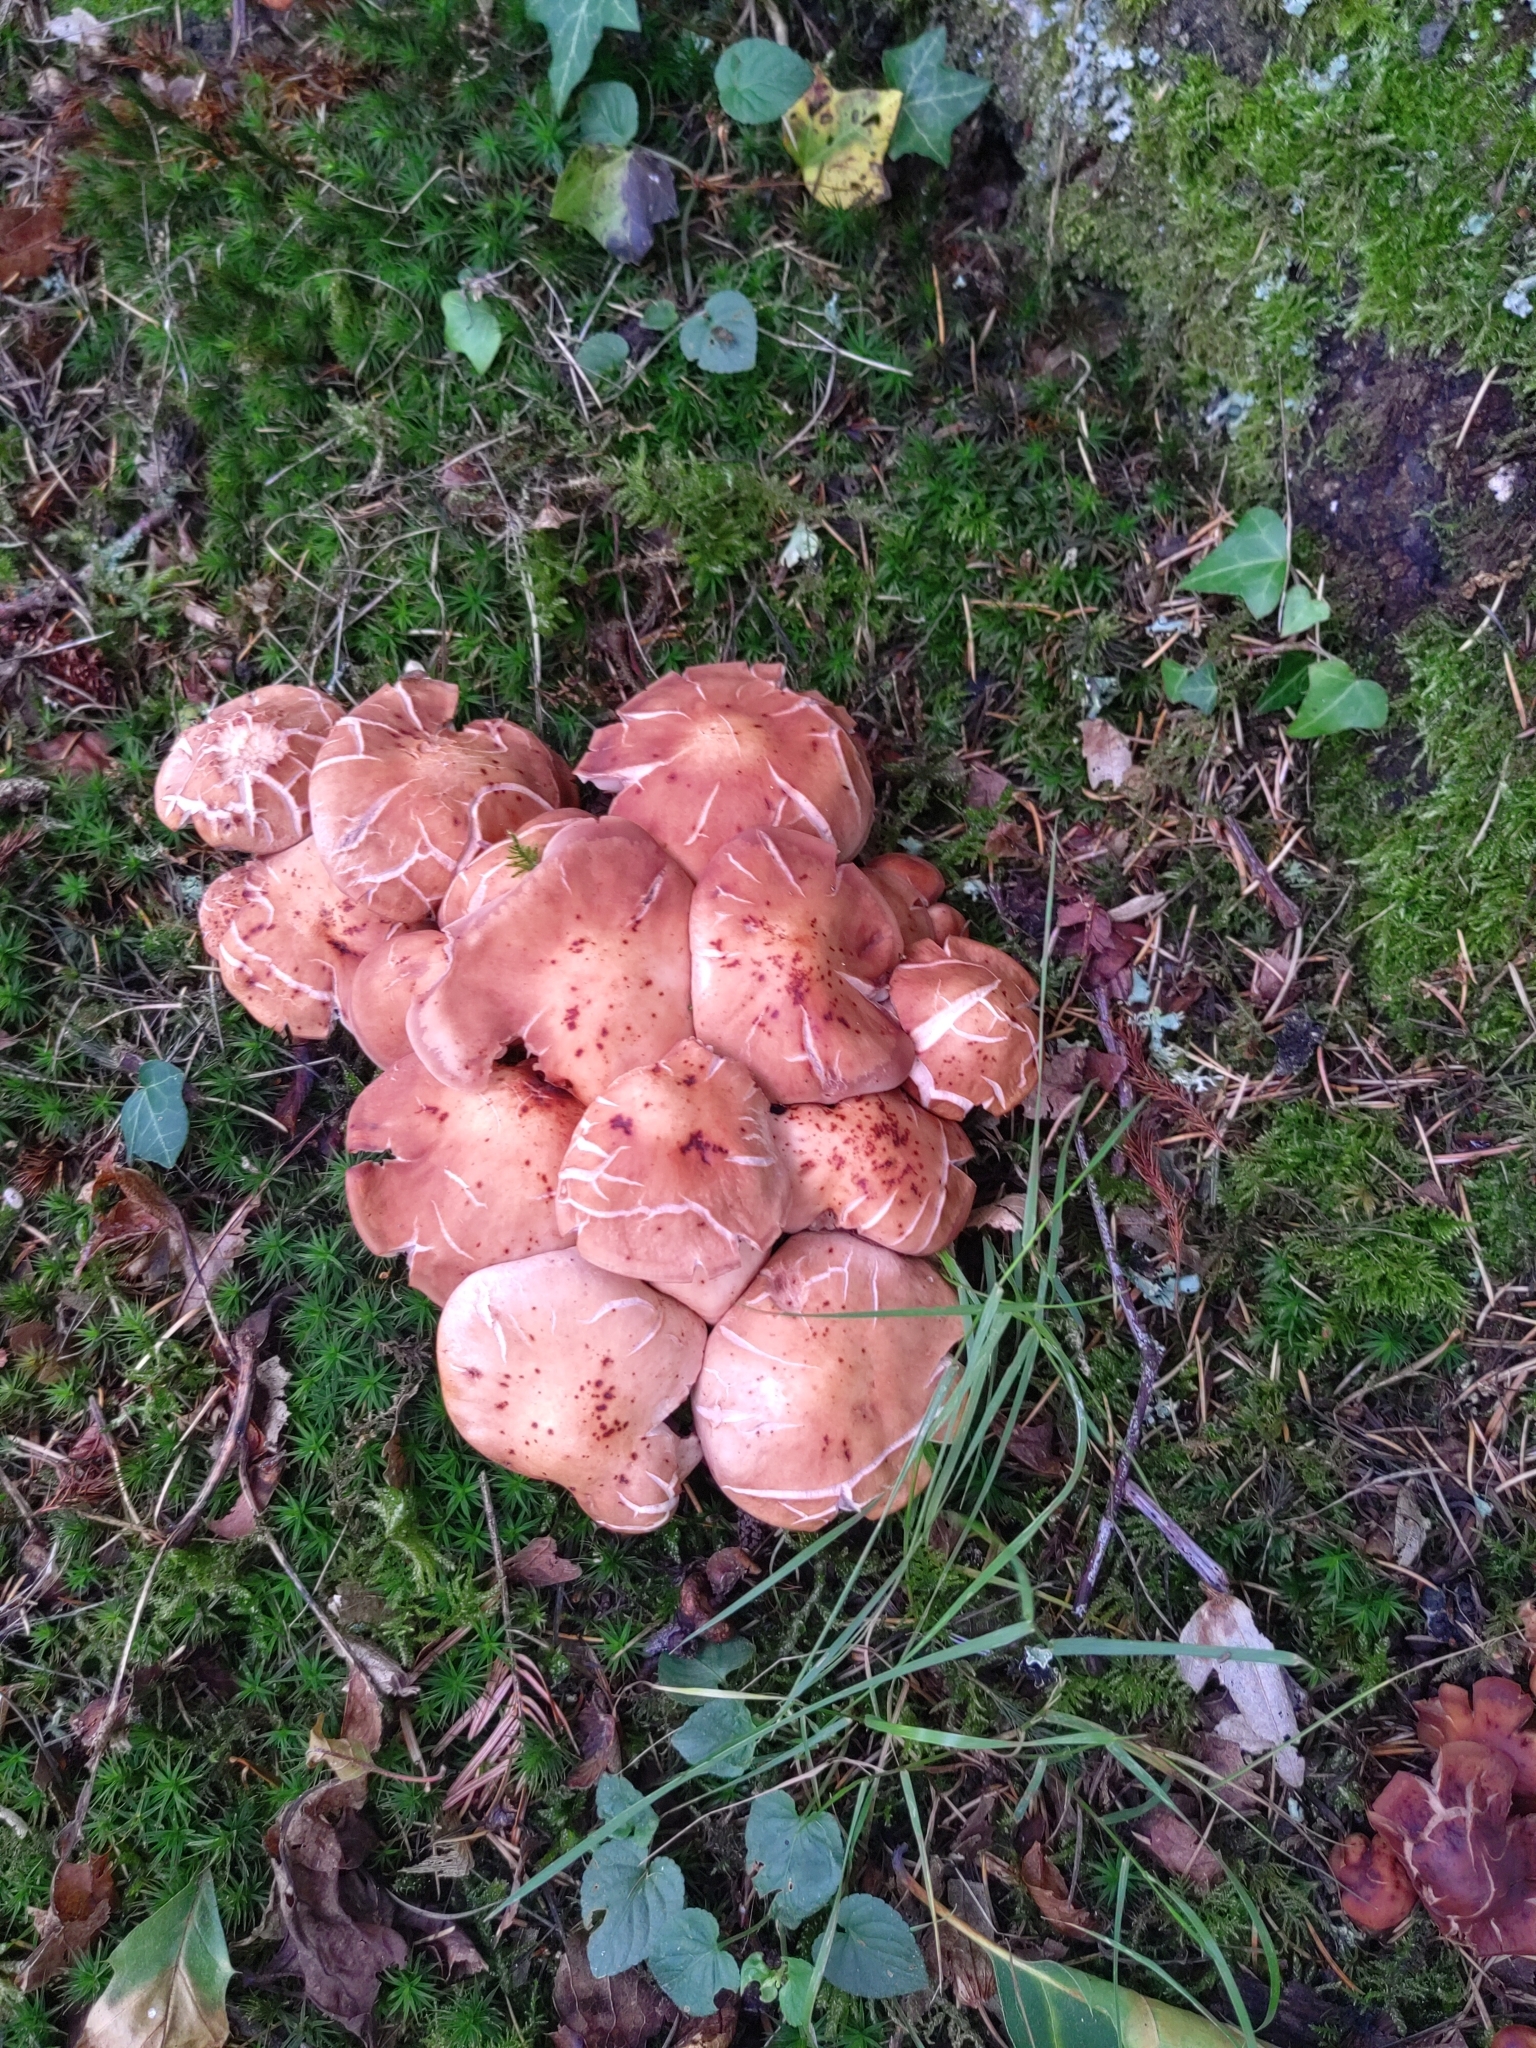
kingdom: Fungi
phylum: Basidiomycota
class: Agaricomycetes
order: Agaricales
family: Omphalotaceae
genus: Gymnopus
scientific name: Gymnopus fusipes
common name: Spindle shank
